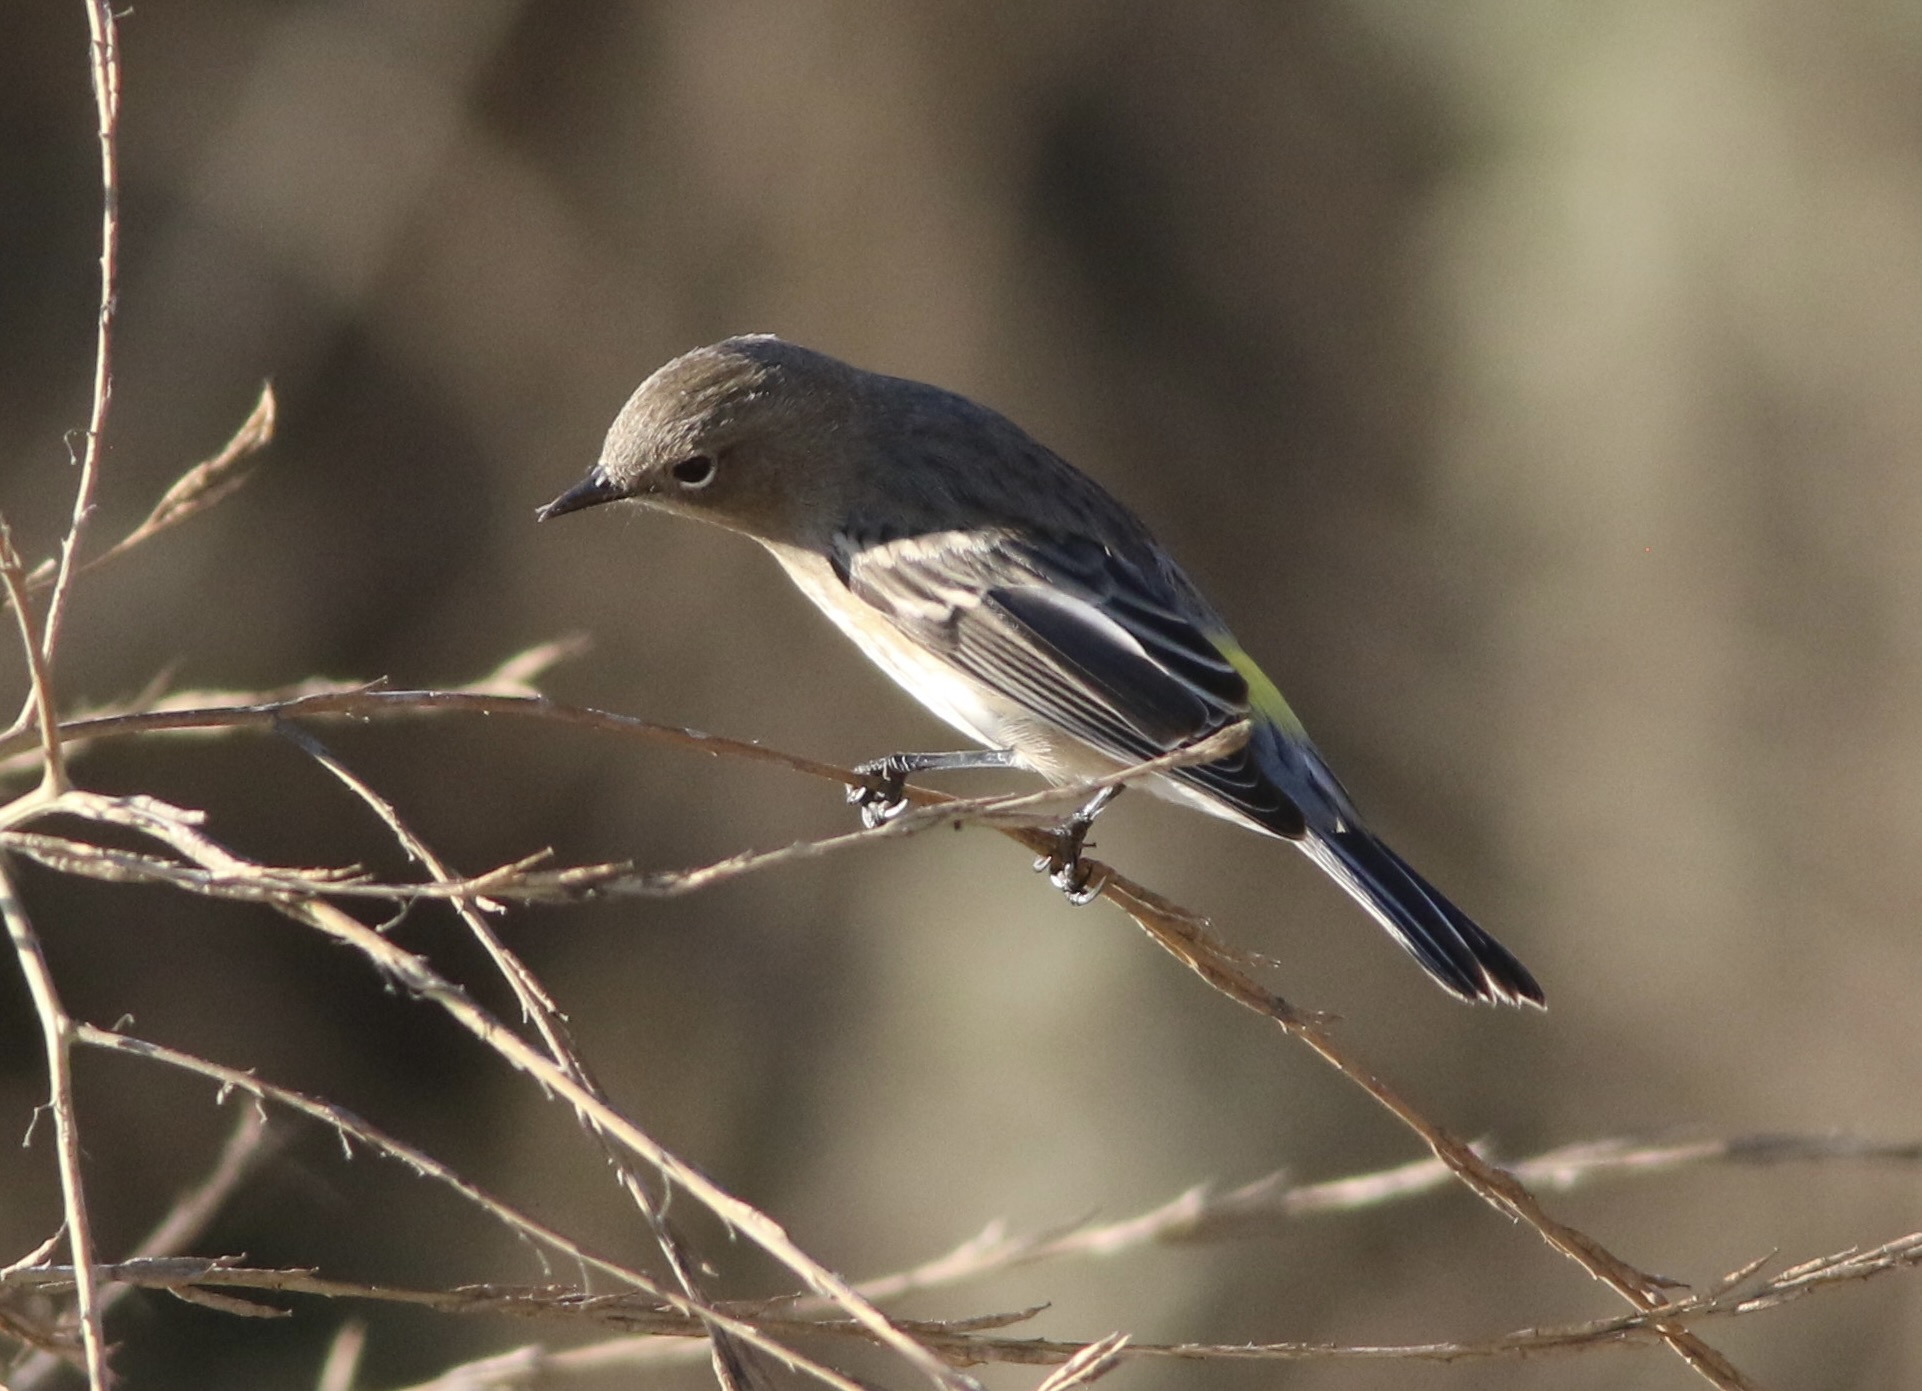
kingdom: Animalia
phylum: Chordata
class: Aves
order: Passeriformes
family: Parulidae
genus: Setophaga
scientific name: Setophaga coronata
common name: Myrtle warbler
